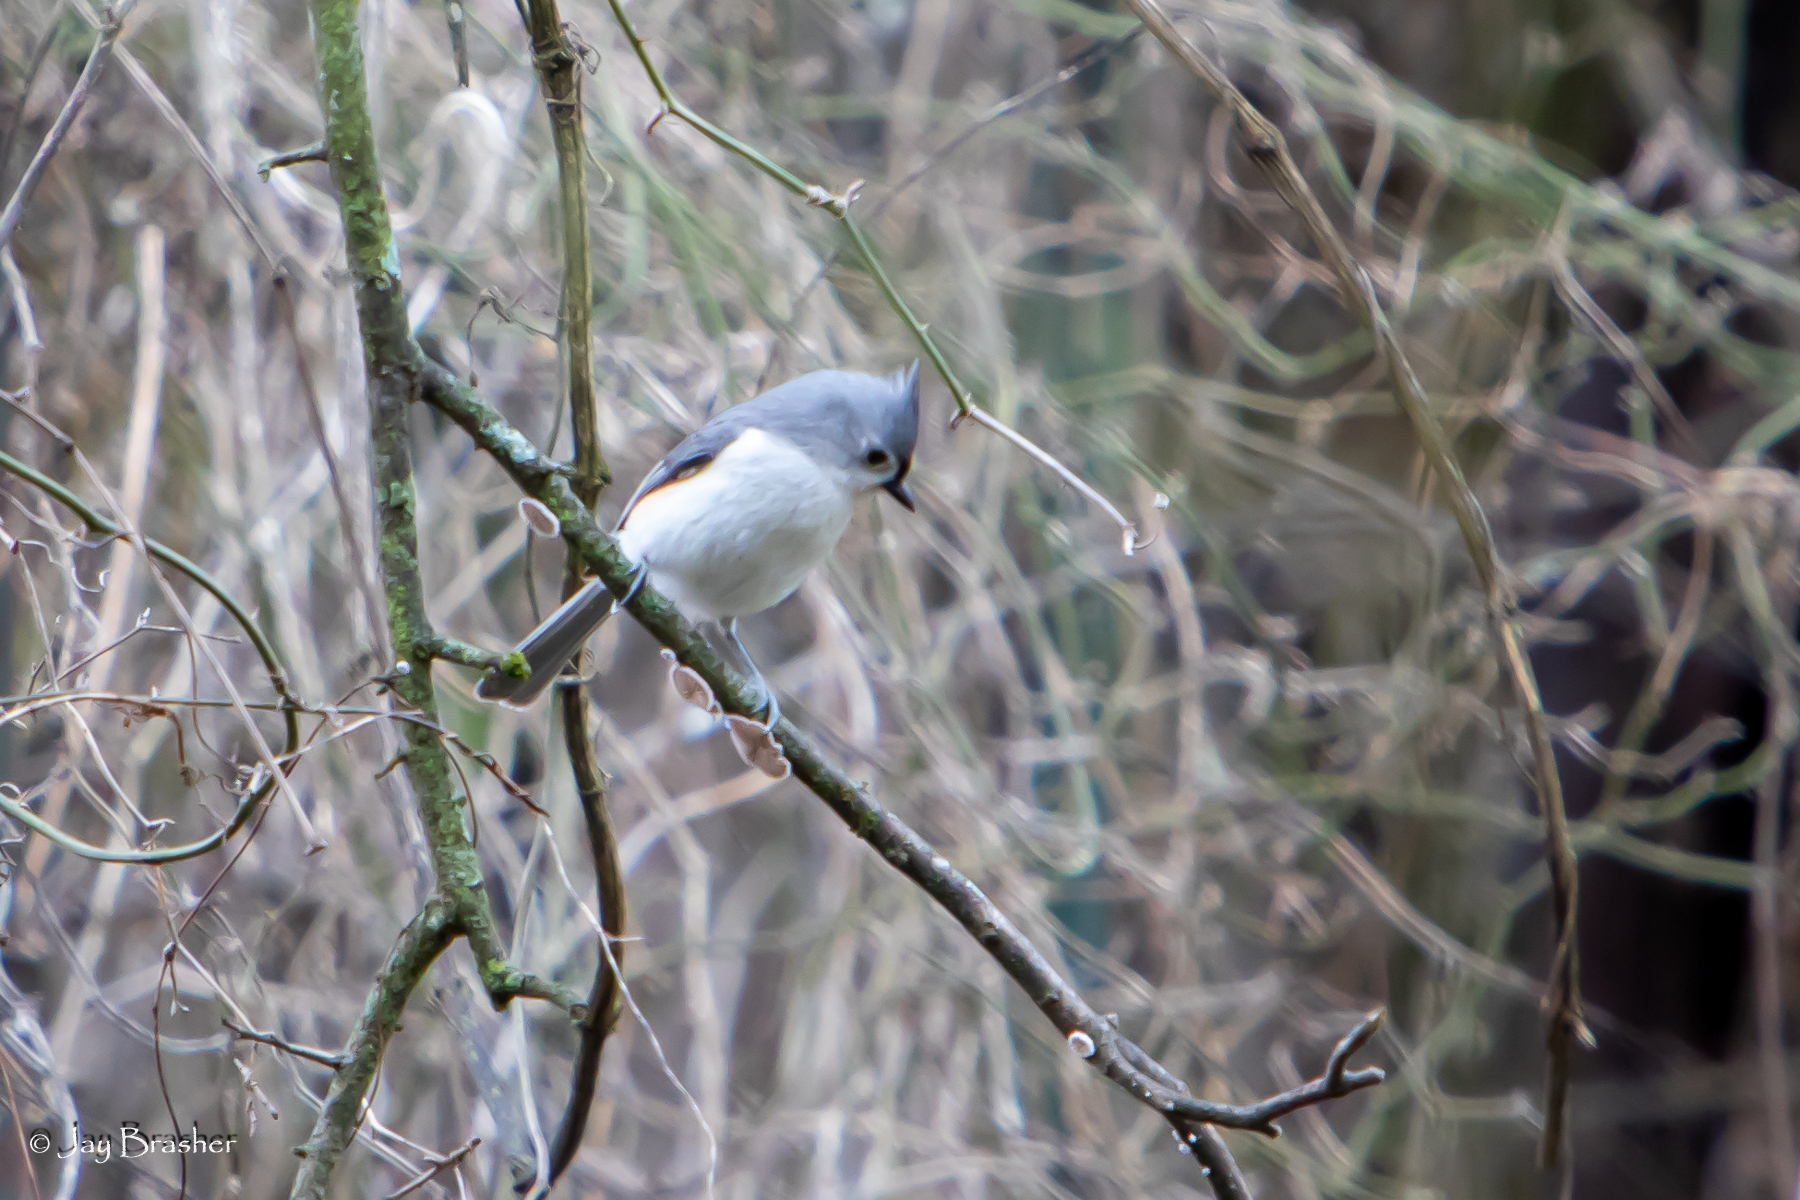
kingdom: Animalia
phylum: Chordata
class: Aves
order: Passeriformes
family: Paridae
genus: Baeolophus
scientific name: Baeolophus bicolor
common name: Tufted titmouse
